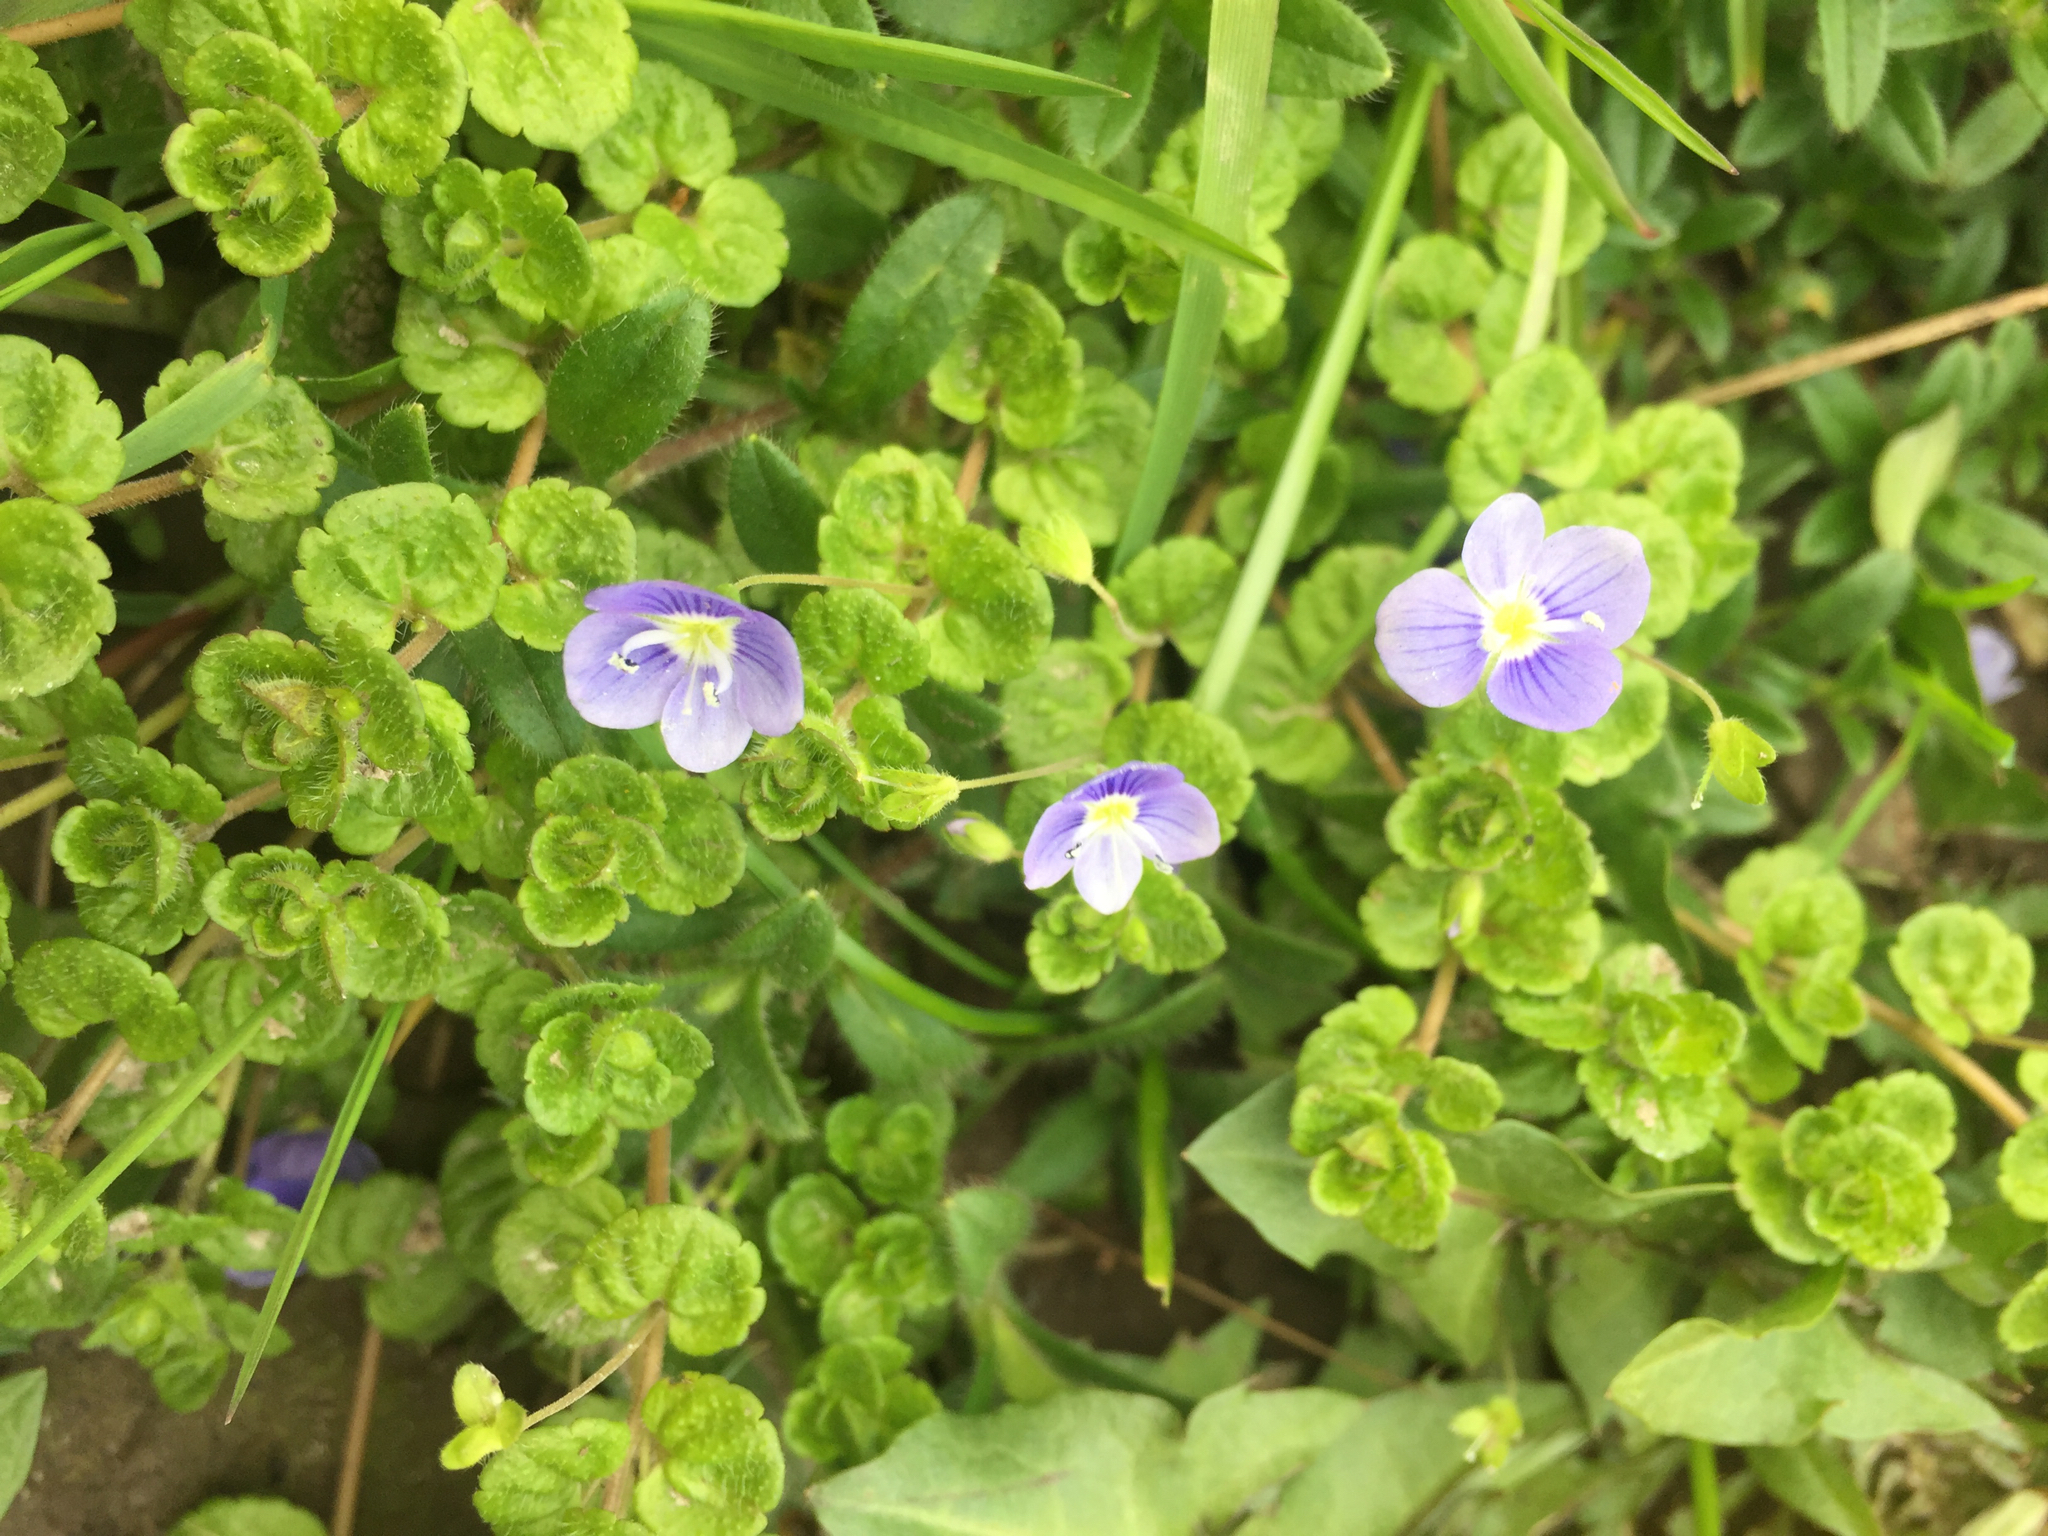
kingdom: Plantae
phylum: Tracheophyta
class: Magnoliopsida
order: Lamiales
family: Plantaginaceae
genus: Veronica
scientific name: Veronica filiformis
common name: Slender speedwell
